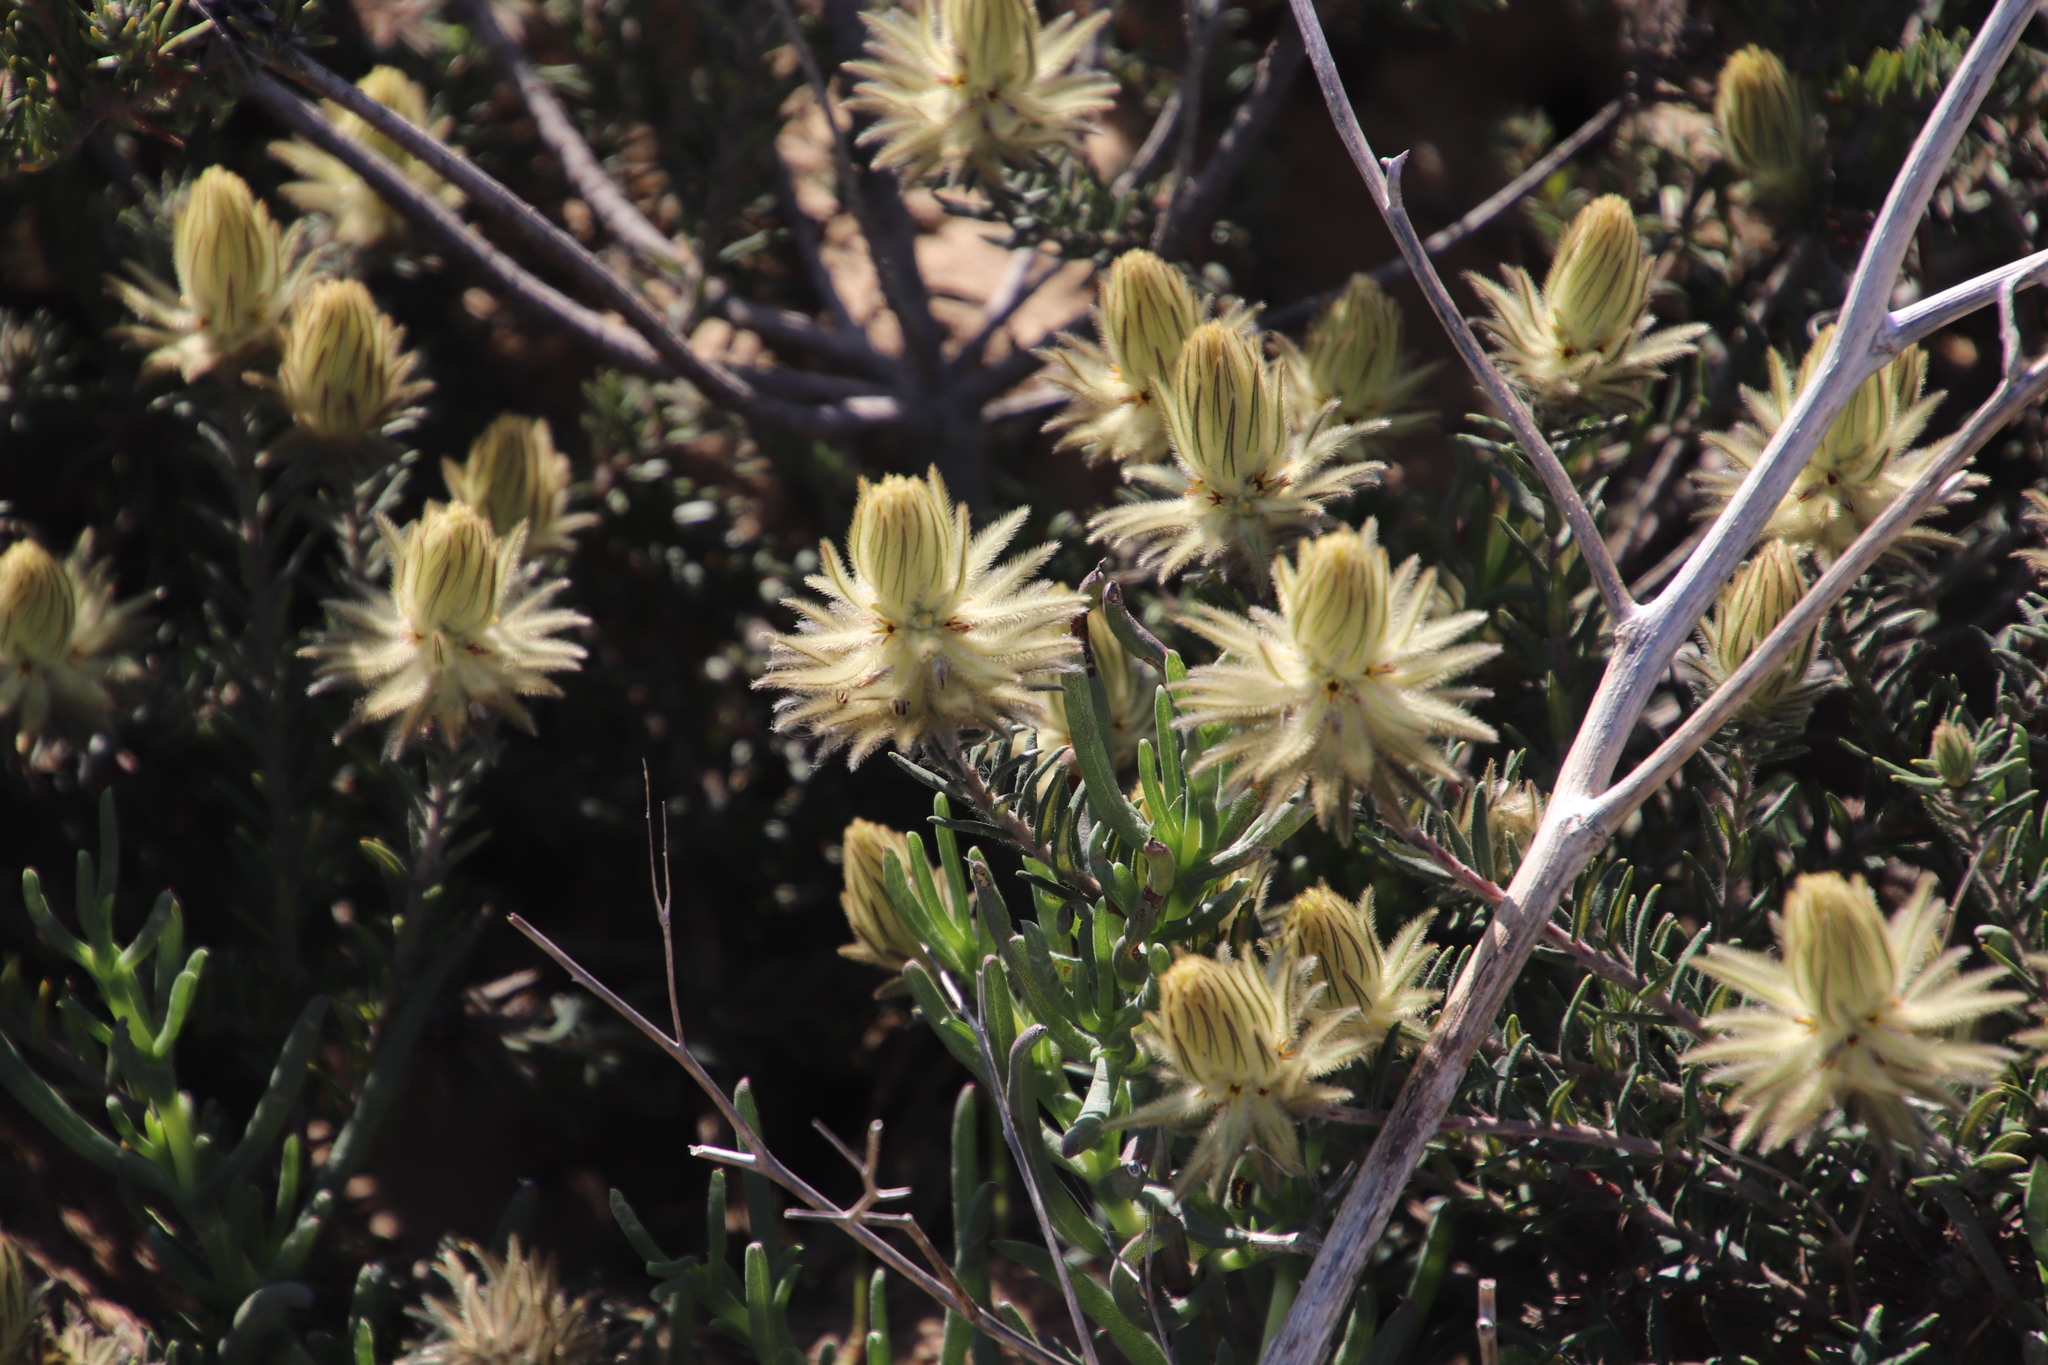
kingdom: Plantae
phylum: Tracheophyta
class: Magnoliopsida
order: Rosales
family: Rhamnaceae
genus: Phylica
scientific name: Phylica plumosa
